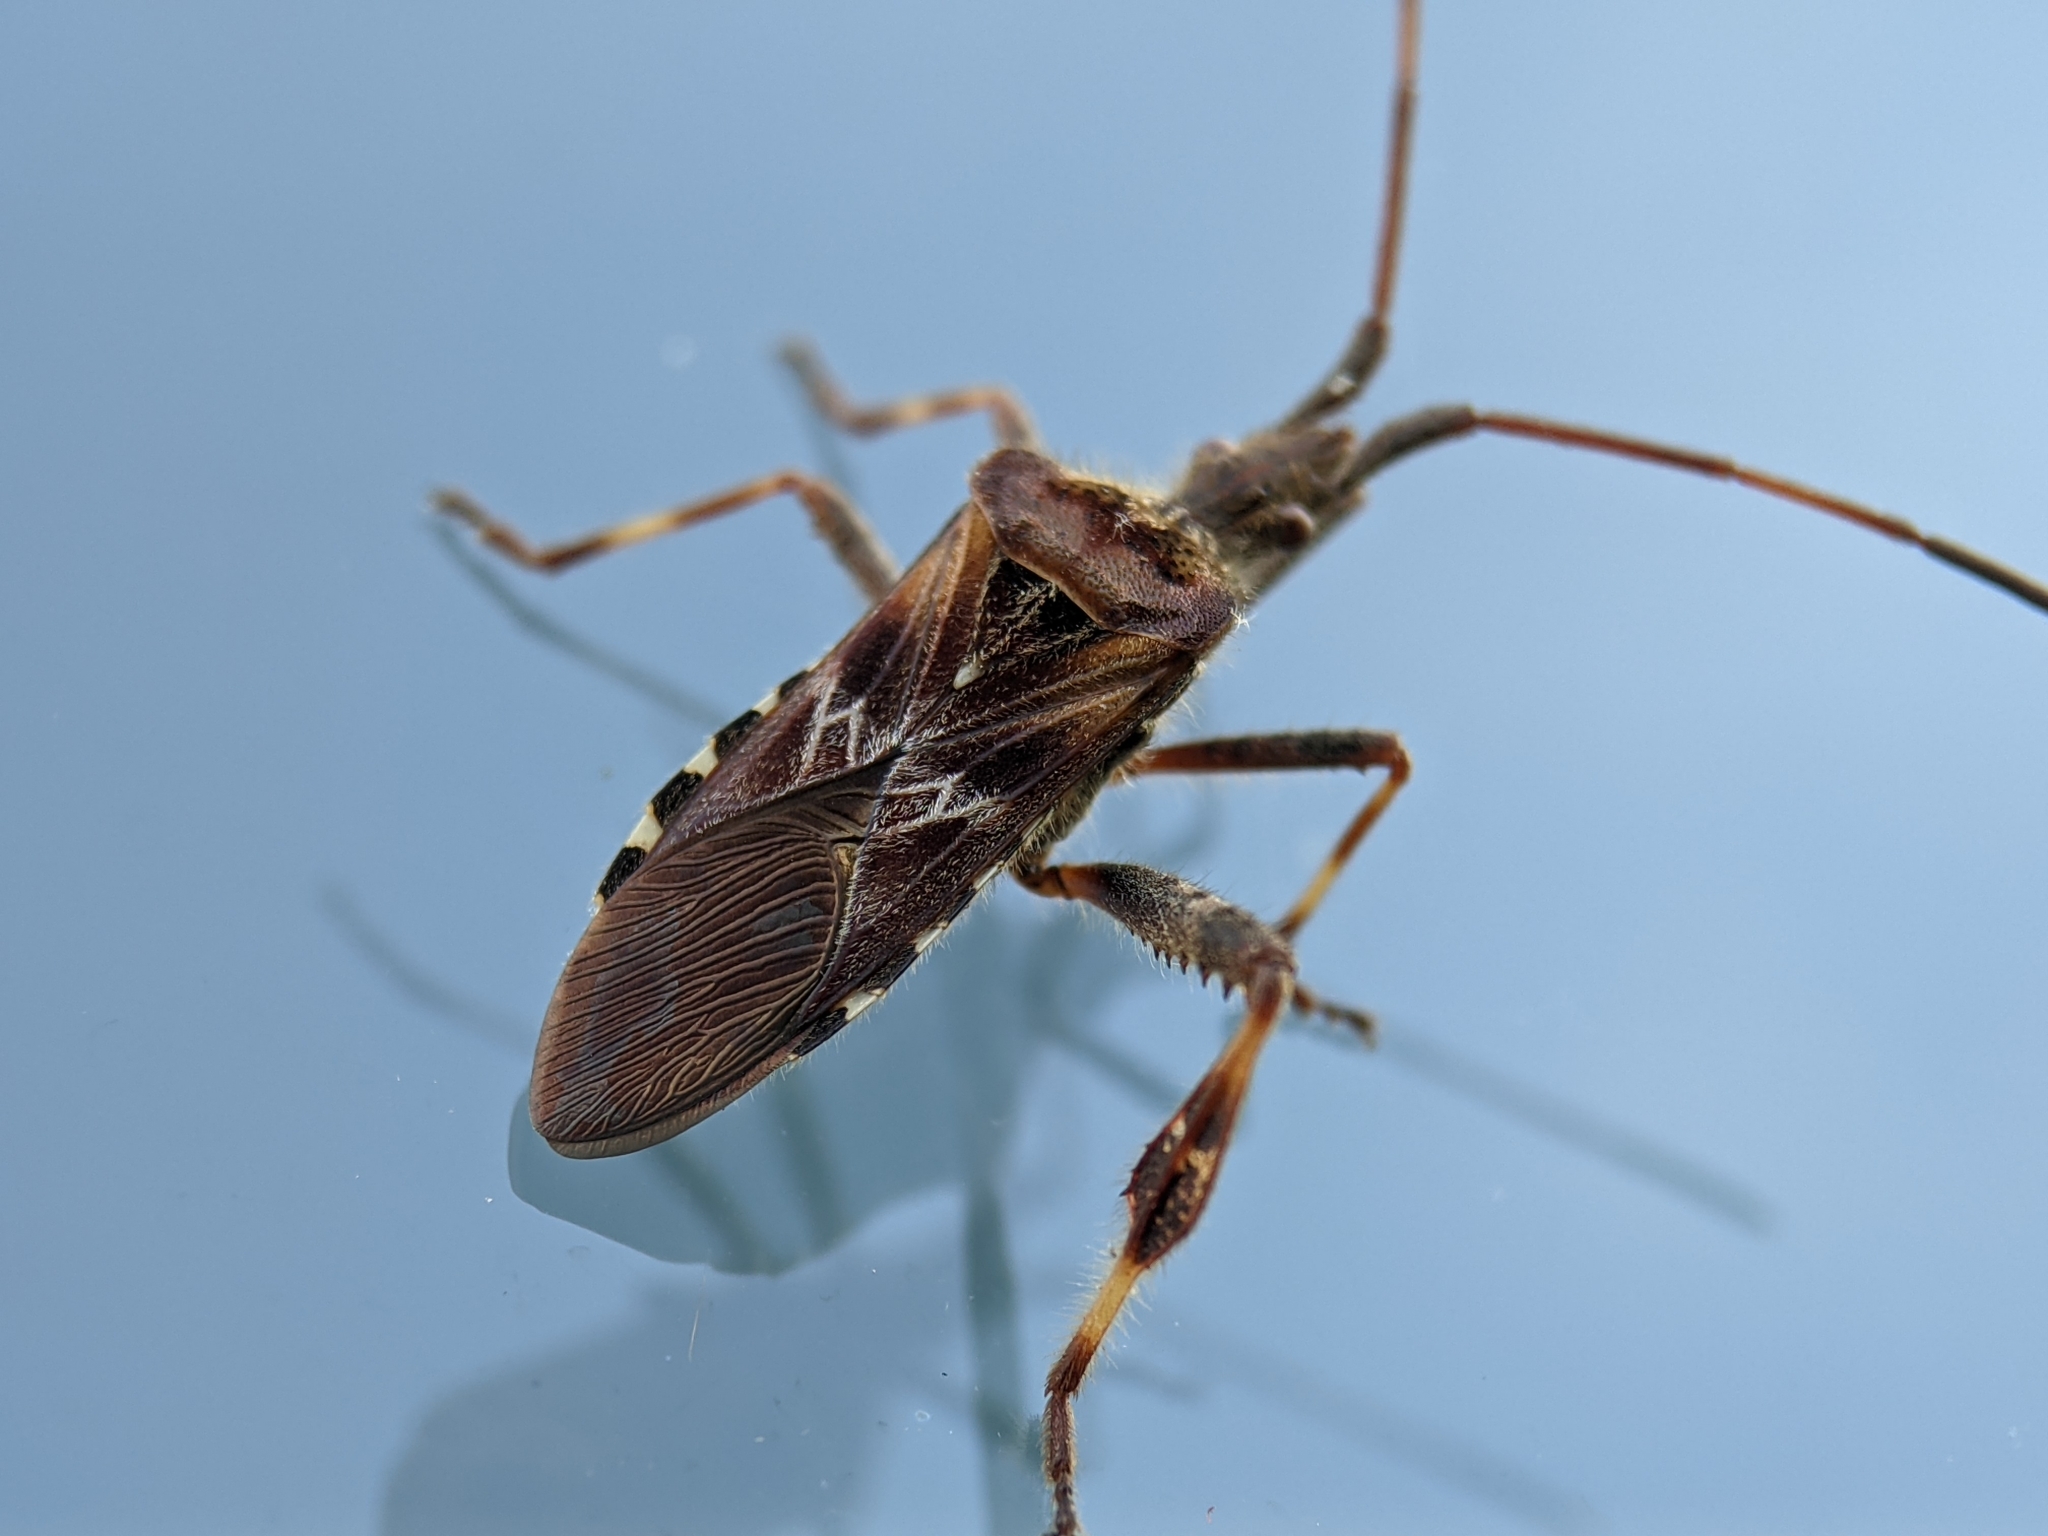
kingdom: Animalia
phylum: Arthropoda
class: Insecta
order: Hemiptera
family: Coreidae
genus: Leptoglossus
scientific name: Leptoglossus occidentalis
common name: Western conifer-seed bug
